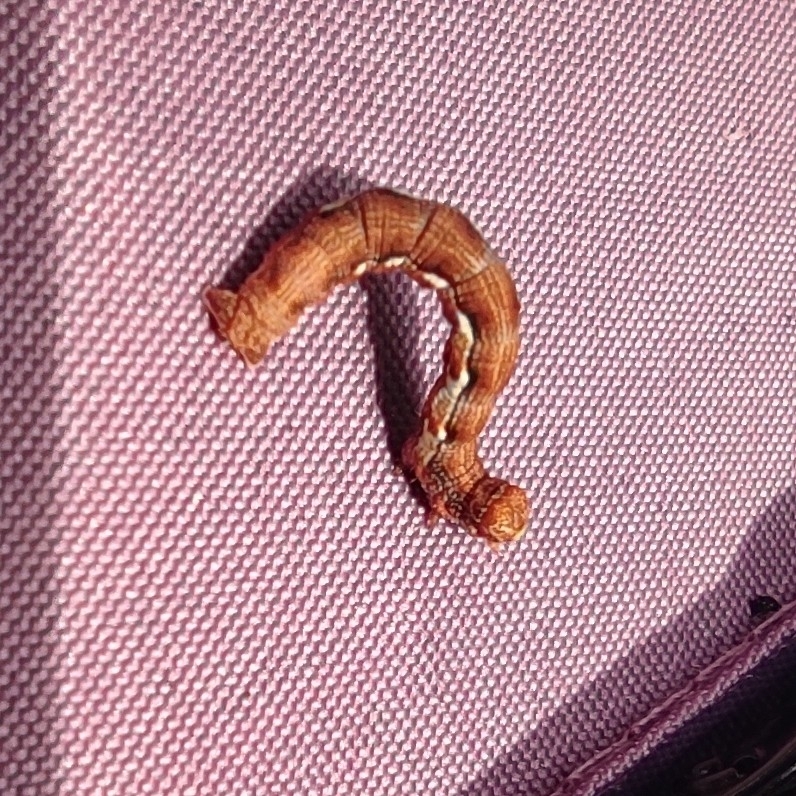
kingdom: Animalia
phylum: Arthropoda
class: Insecta
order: Lepidoptera
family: Geometridae
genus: Erannis
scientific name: Erannis defoliaria
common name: Mottled umber
